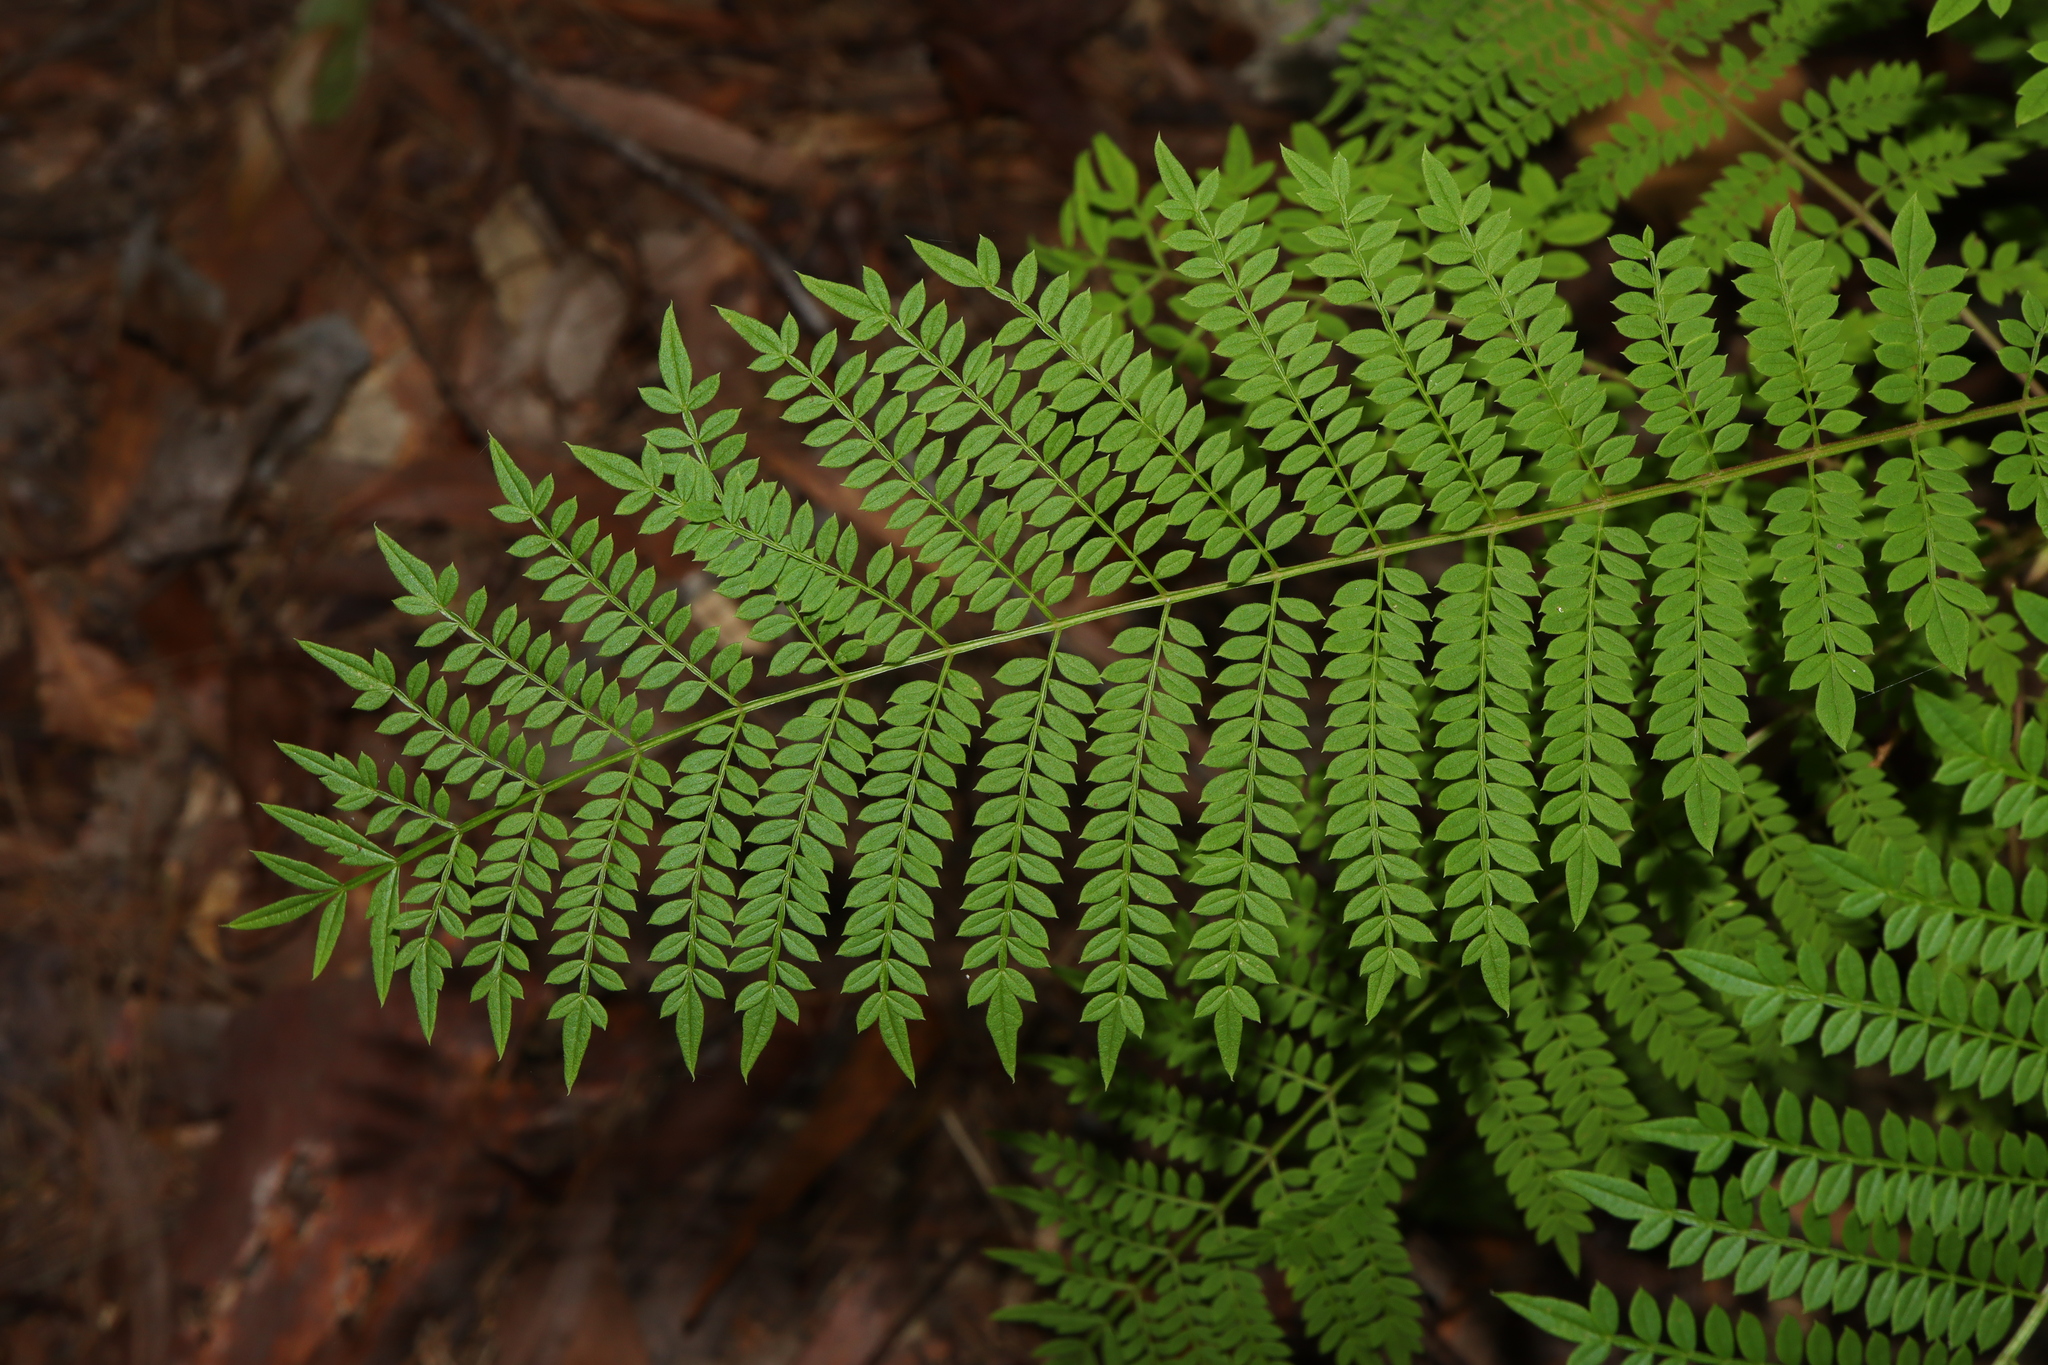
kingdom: Plantae
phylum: Tracheophyta
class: Magnoliopsida
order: Lamiales
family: Bignoniaceae
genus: Jacaranda
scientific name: Jacaranda mimosifolia
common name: Black poui
